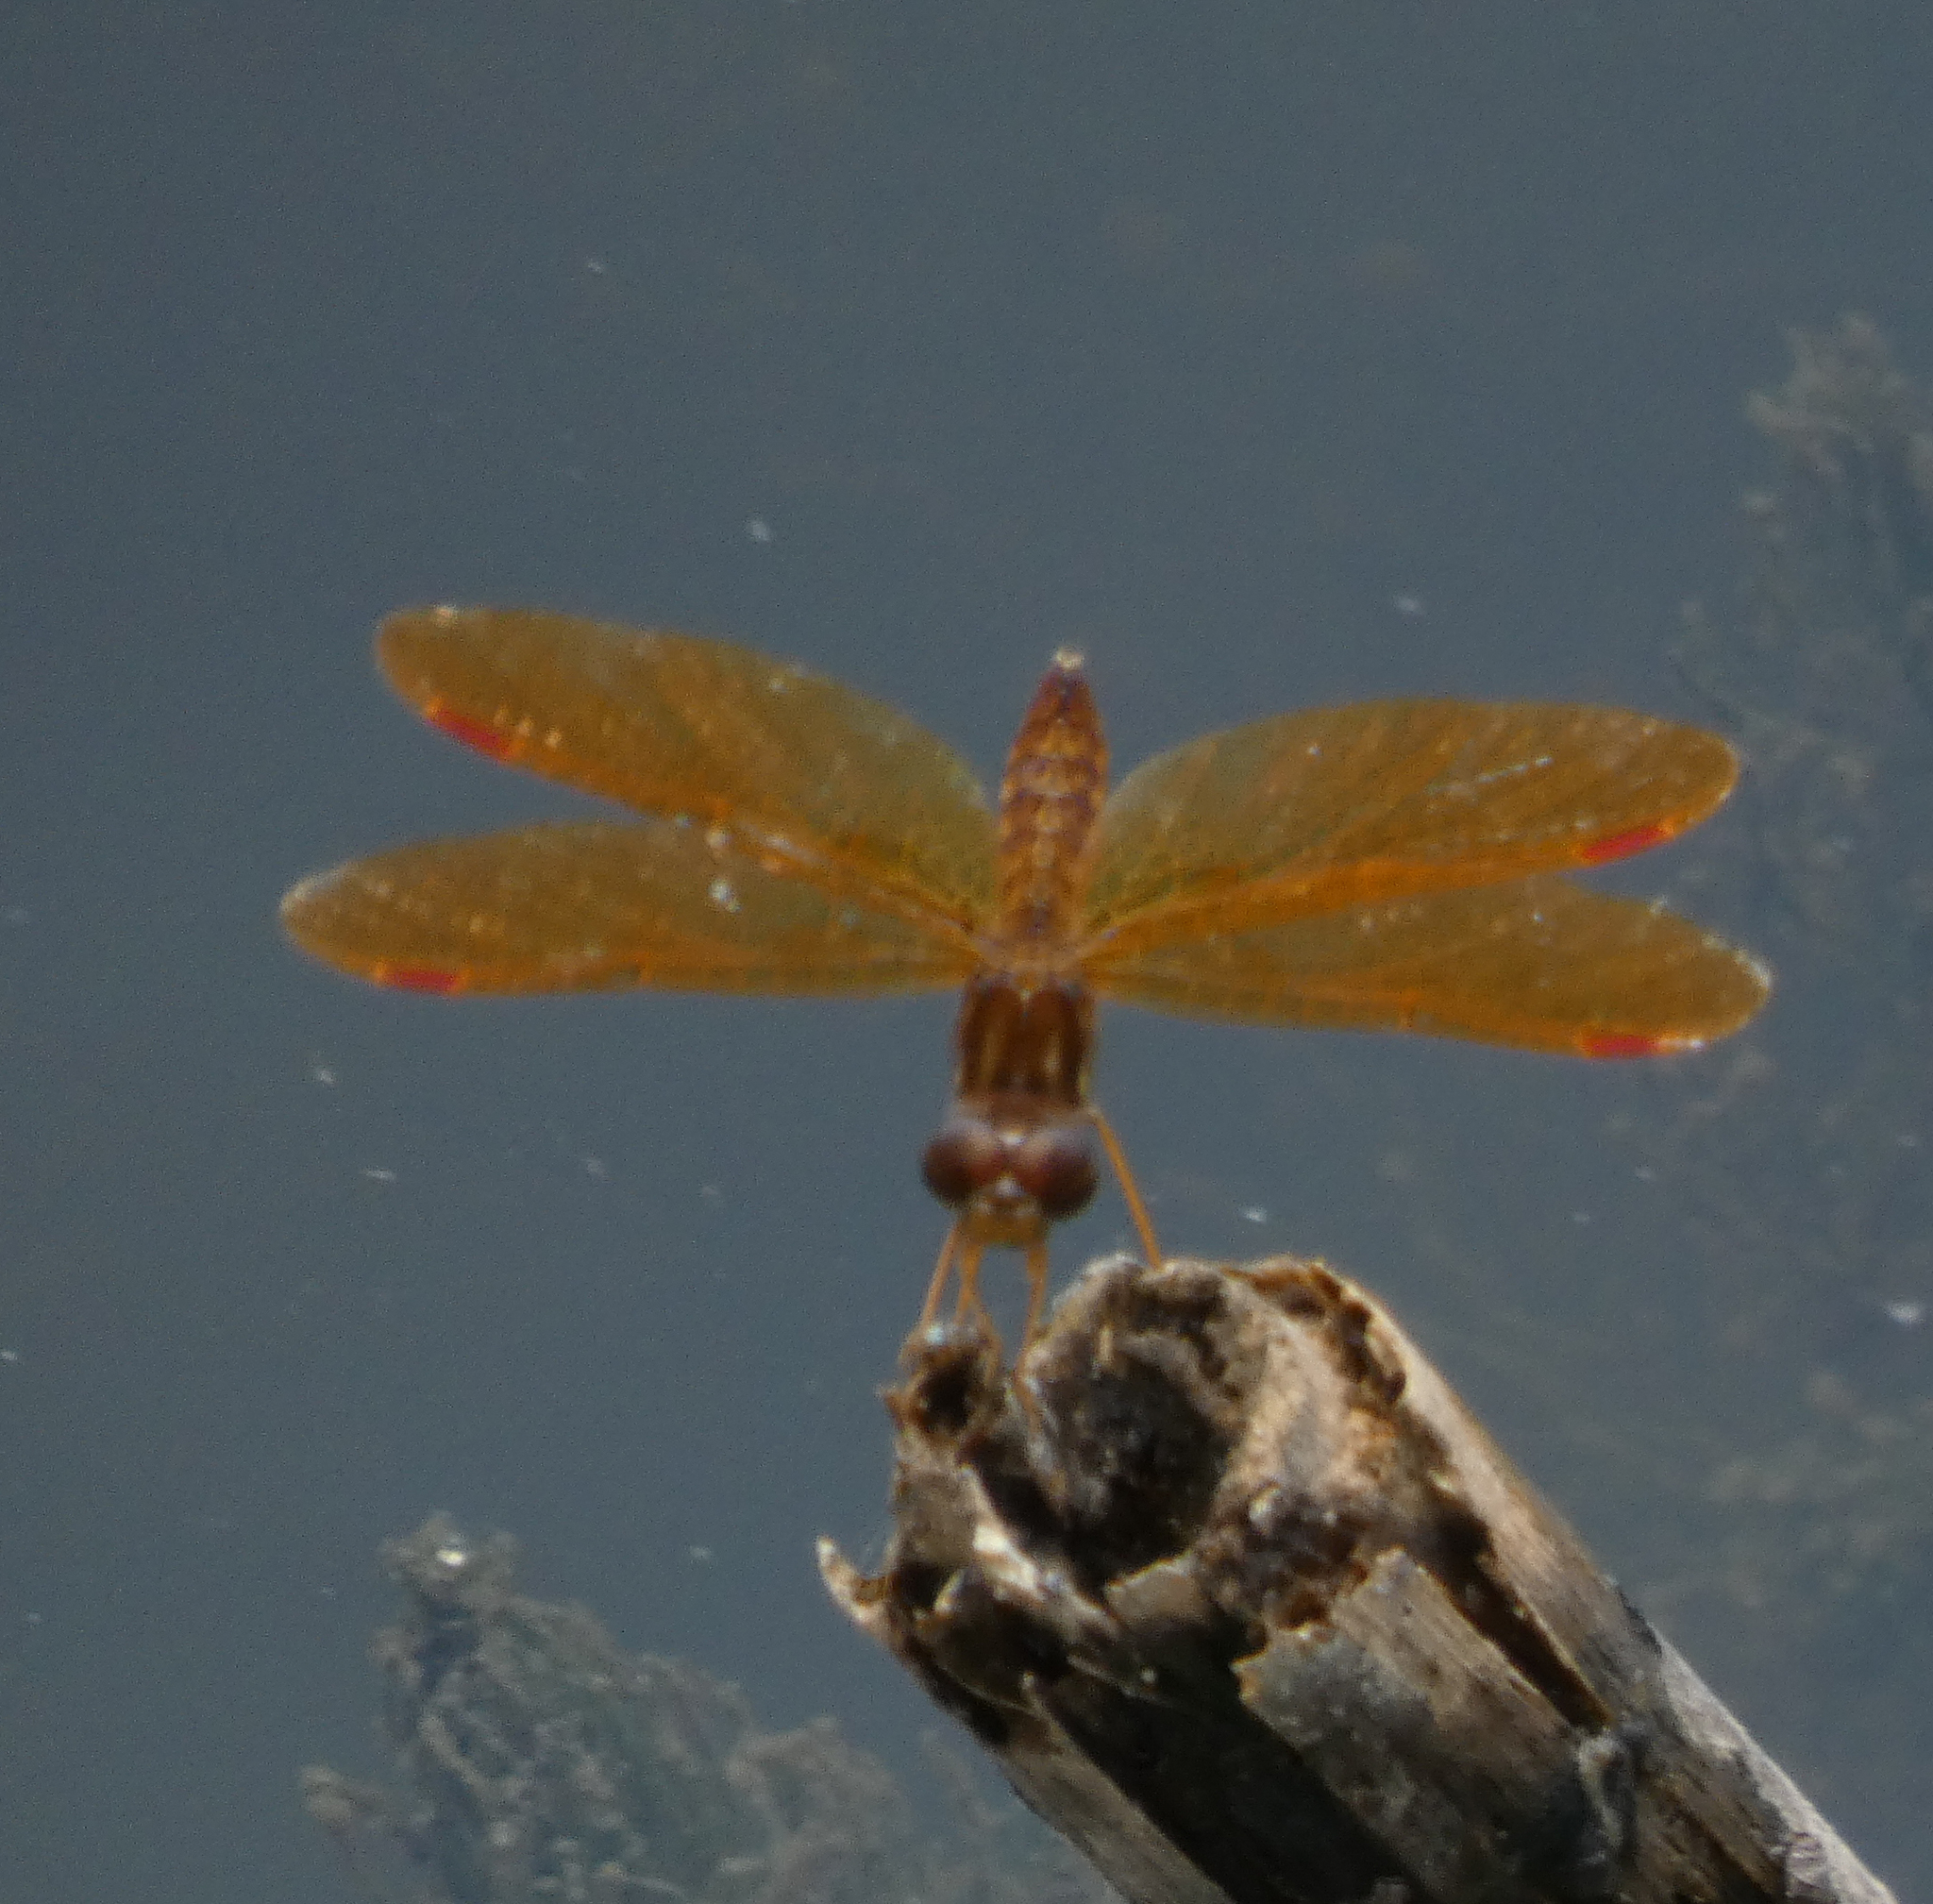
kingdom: Animalia
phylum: Arthropoda
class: Insecta
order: Odonata
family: Libellulidae
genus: Perithemis
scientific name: Perithemis tenera
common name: Eastern amberwing
